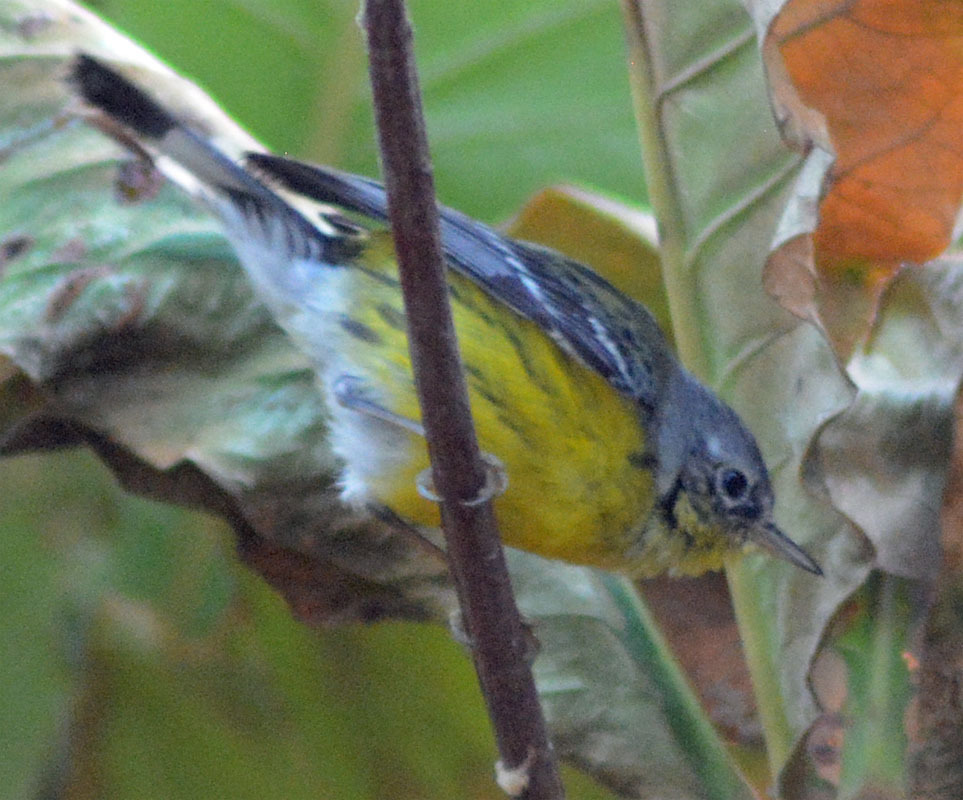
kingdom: Animalia
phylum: Chordata
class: Aves
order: Passeriformes
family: Parulidae
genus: Setophaga
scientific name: Setophaga magnolia
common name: Magnolia warbler
